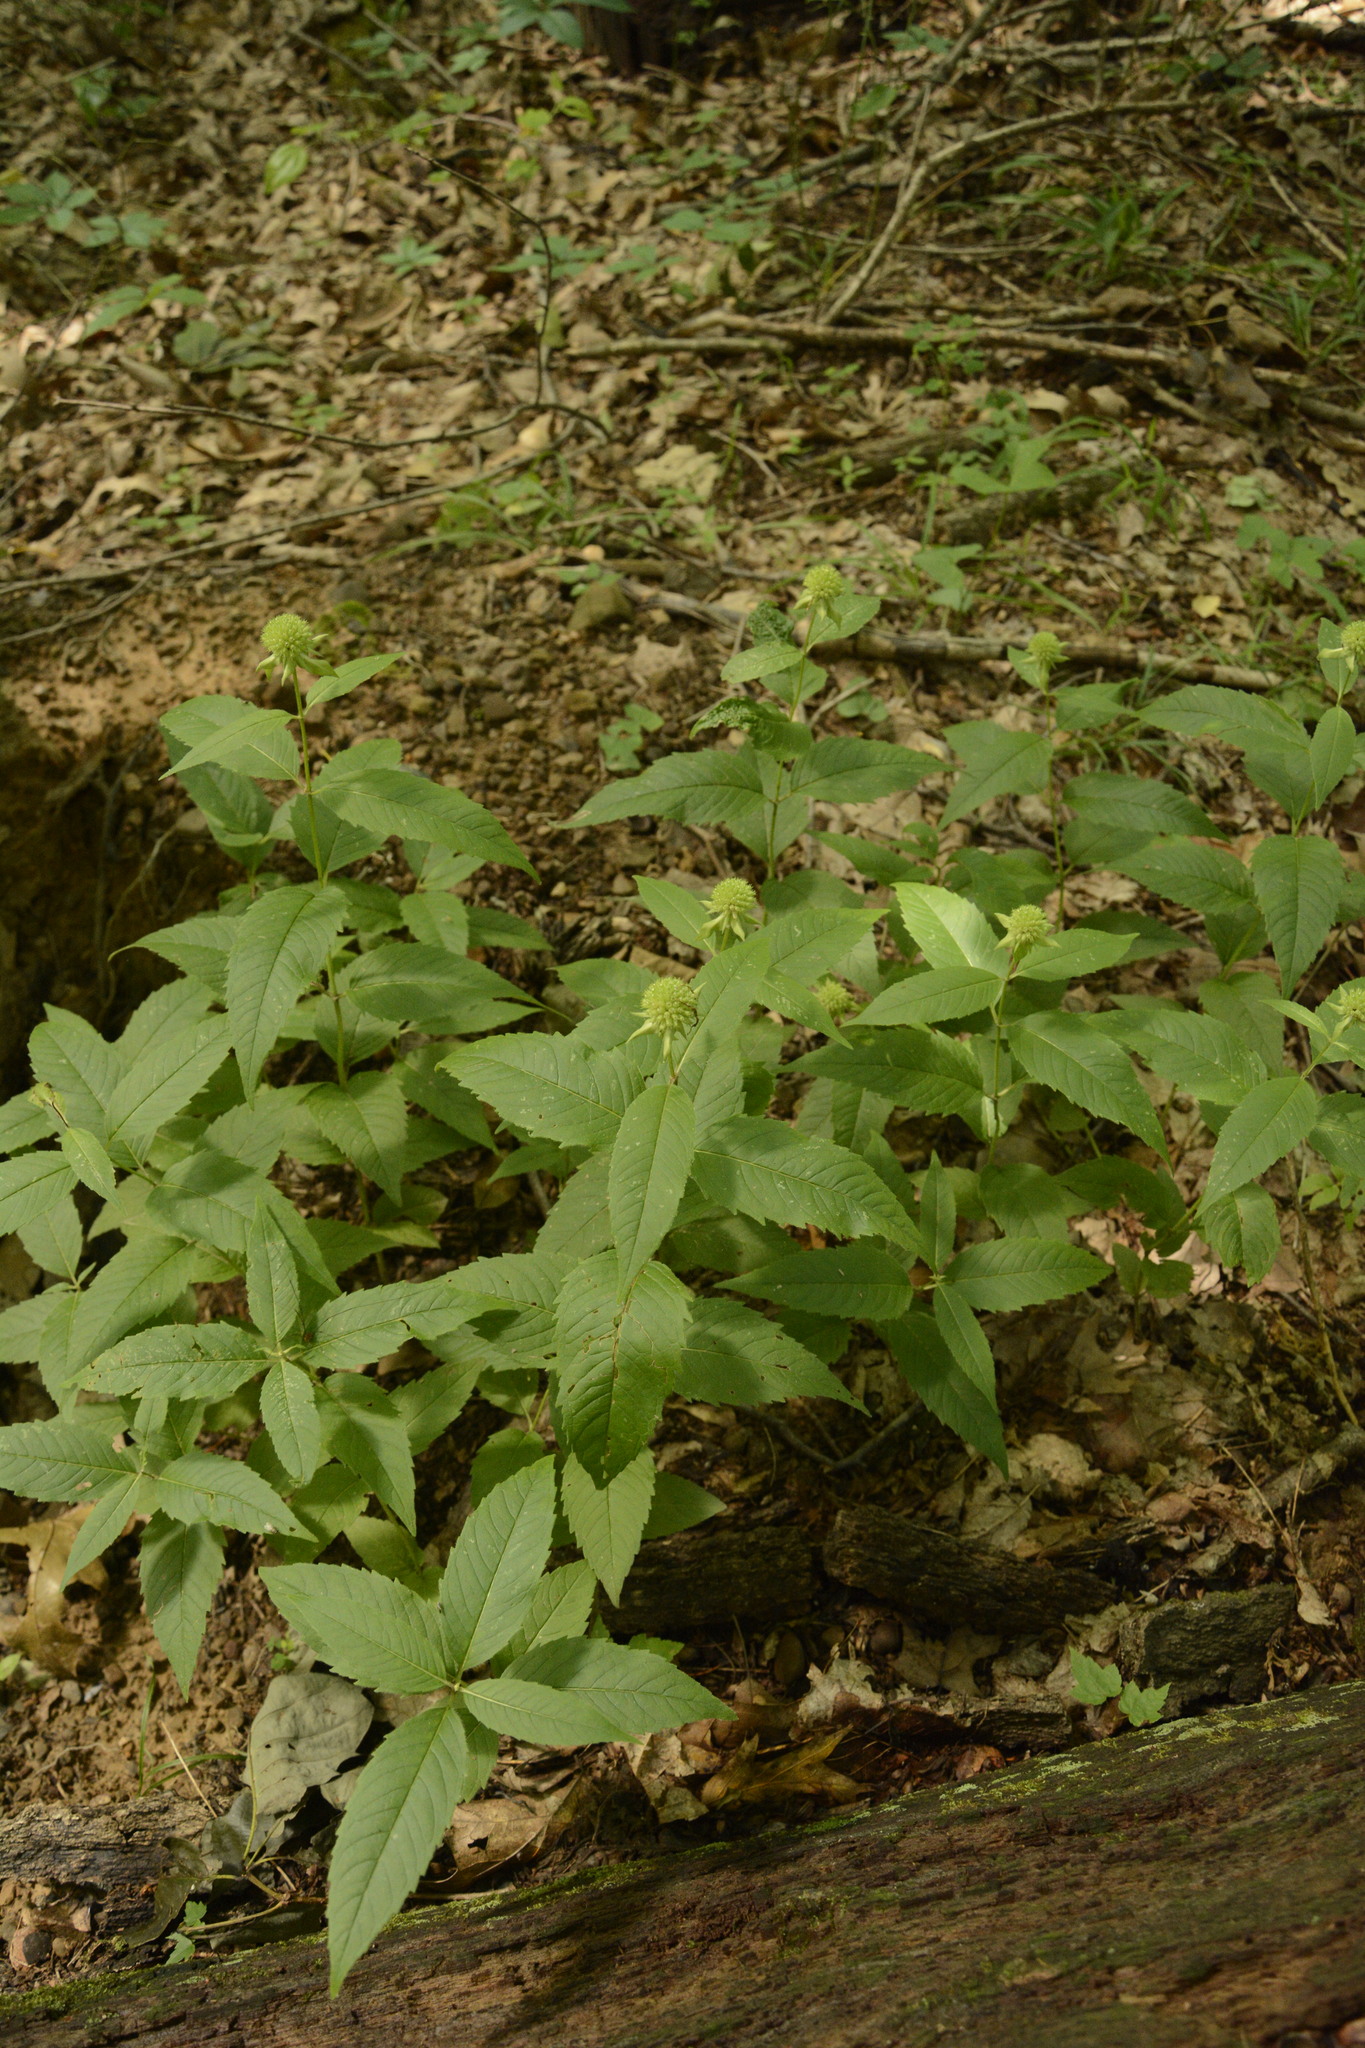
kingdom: Plantae
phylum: Tracheophyta
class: Magnoliopsida
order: Lamiales
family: Lamiaceae
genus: Monarda
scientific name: Monarda clinopodia
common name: Basil beebalm
